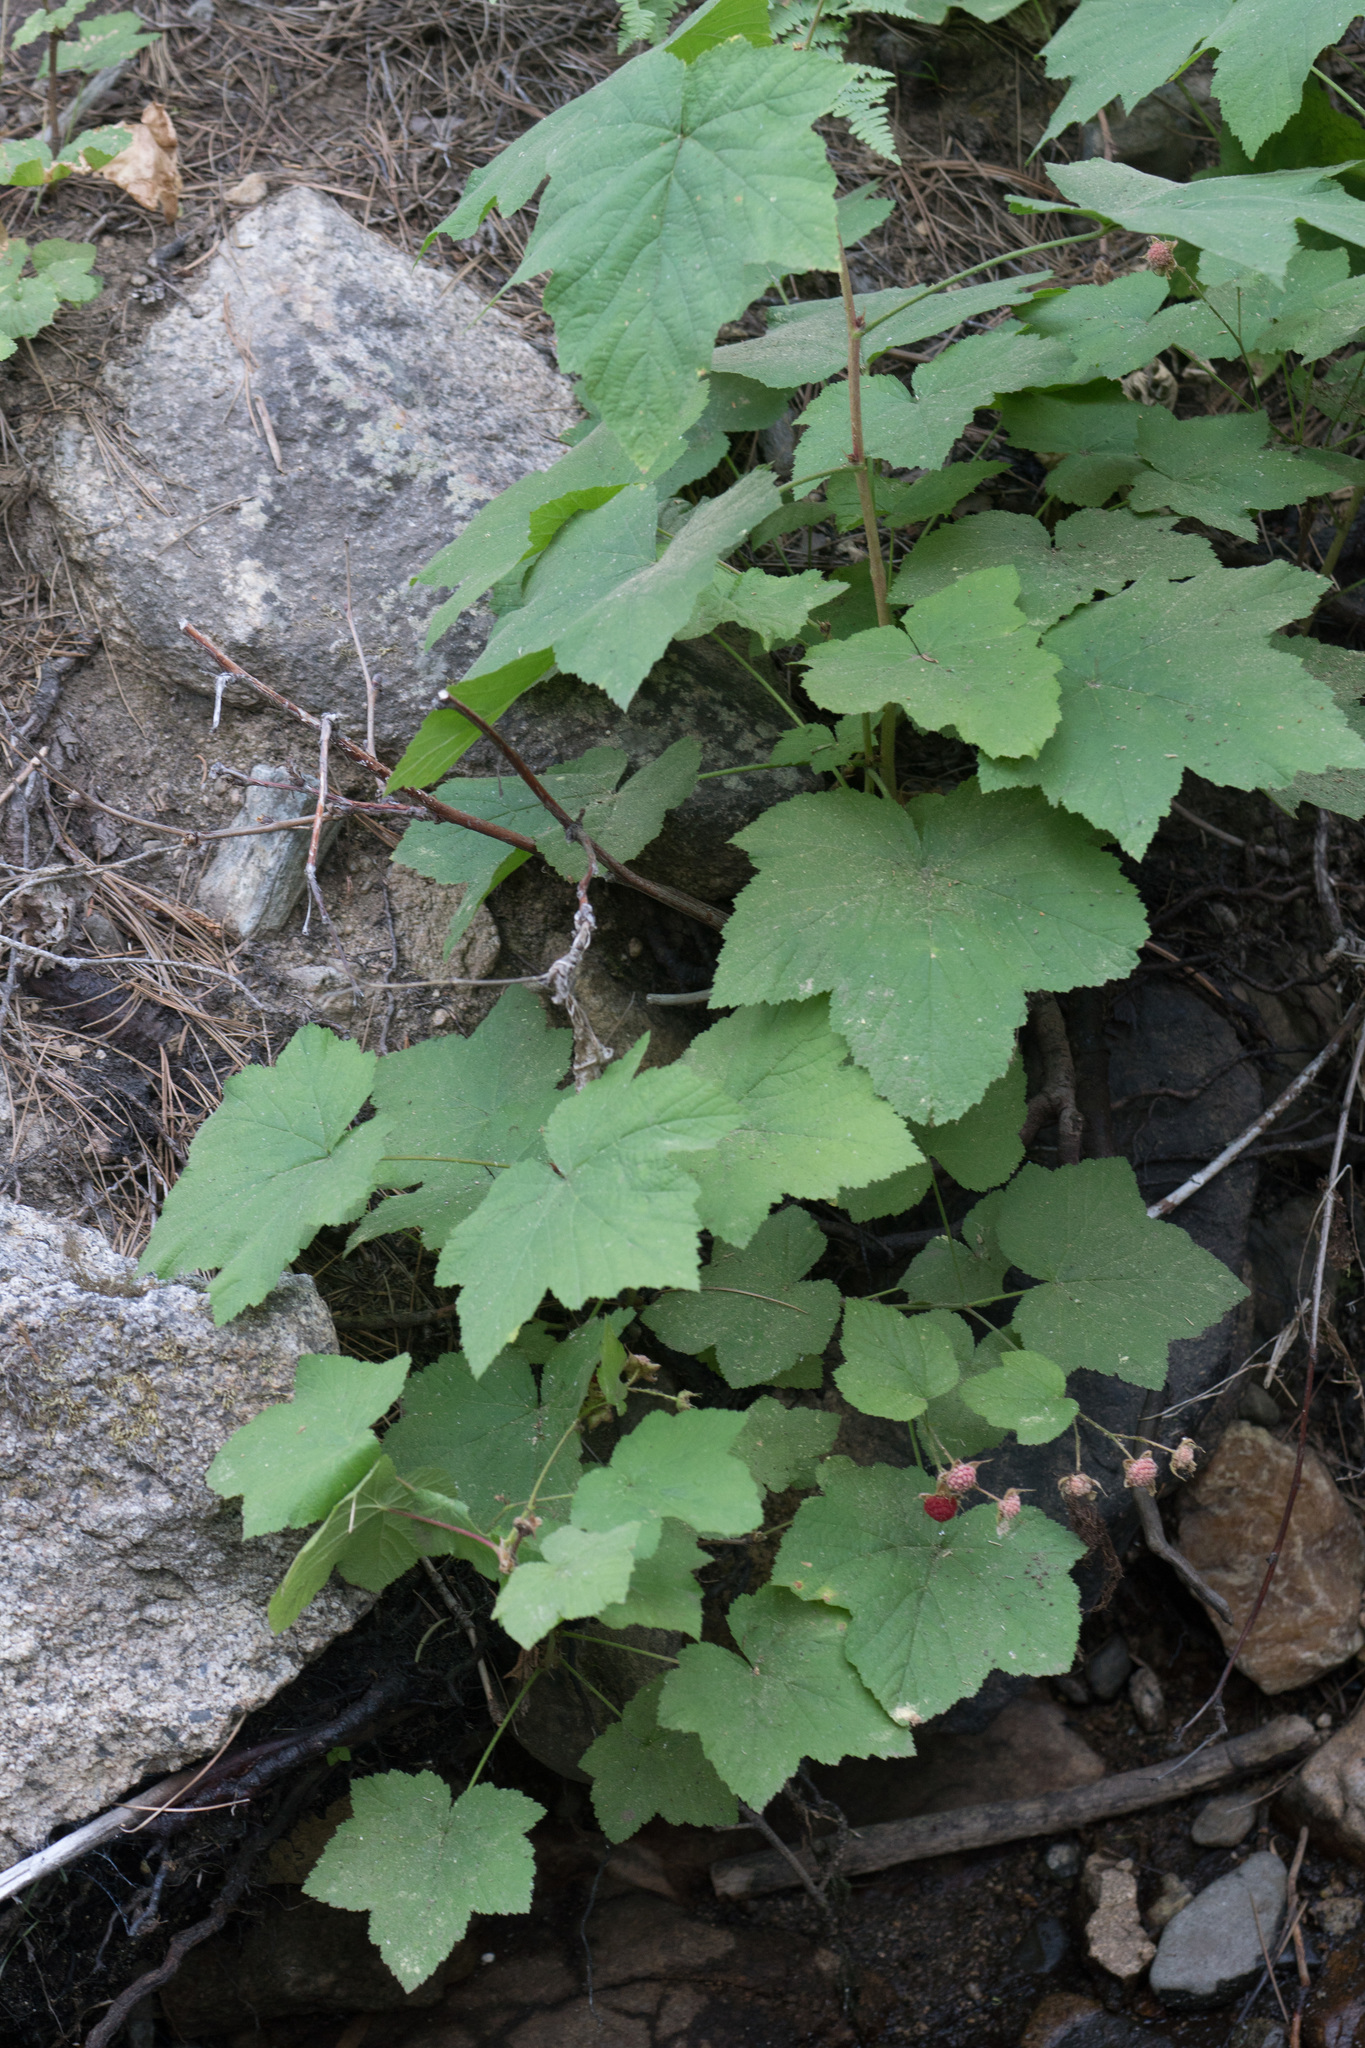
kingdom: Plantae
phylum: Tracheophyta
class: Magnoliopsida
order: Rosales
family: Rosaceae
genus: Rubus
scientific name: Rubus parviflorus
